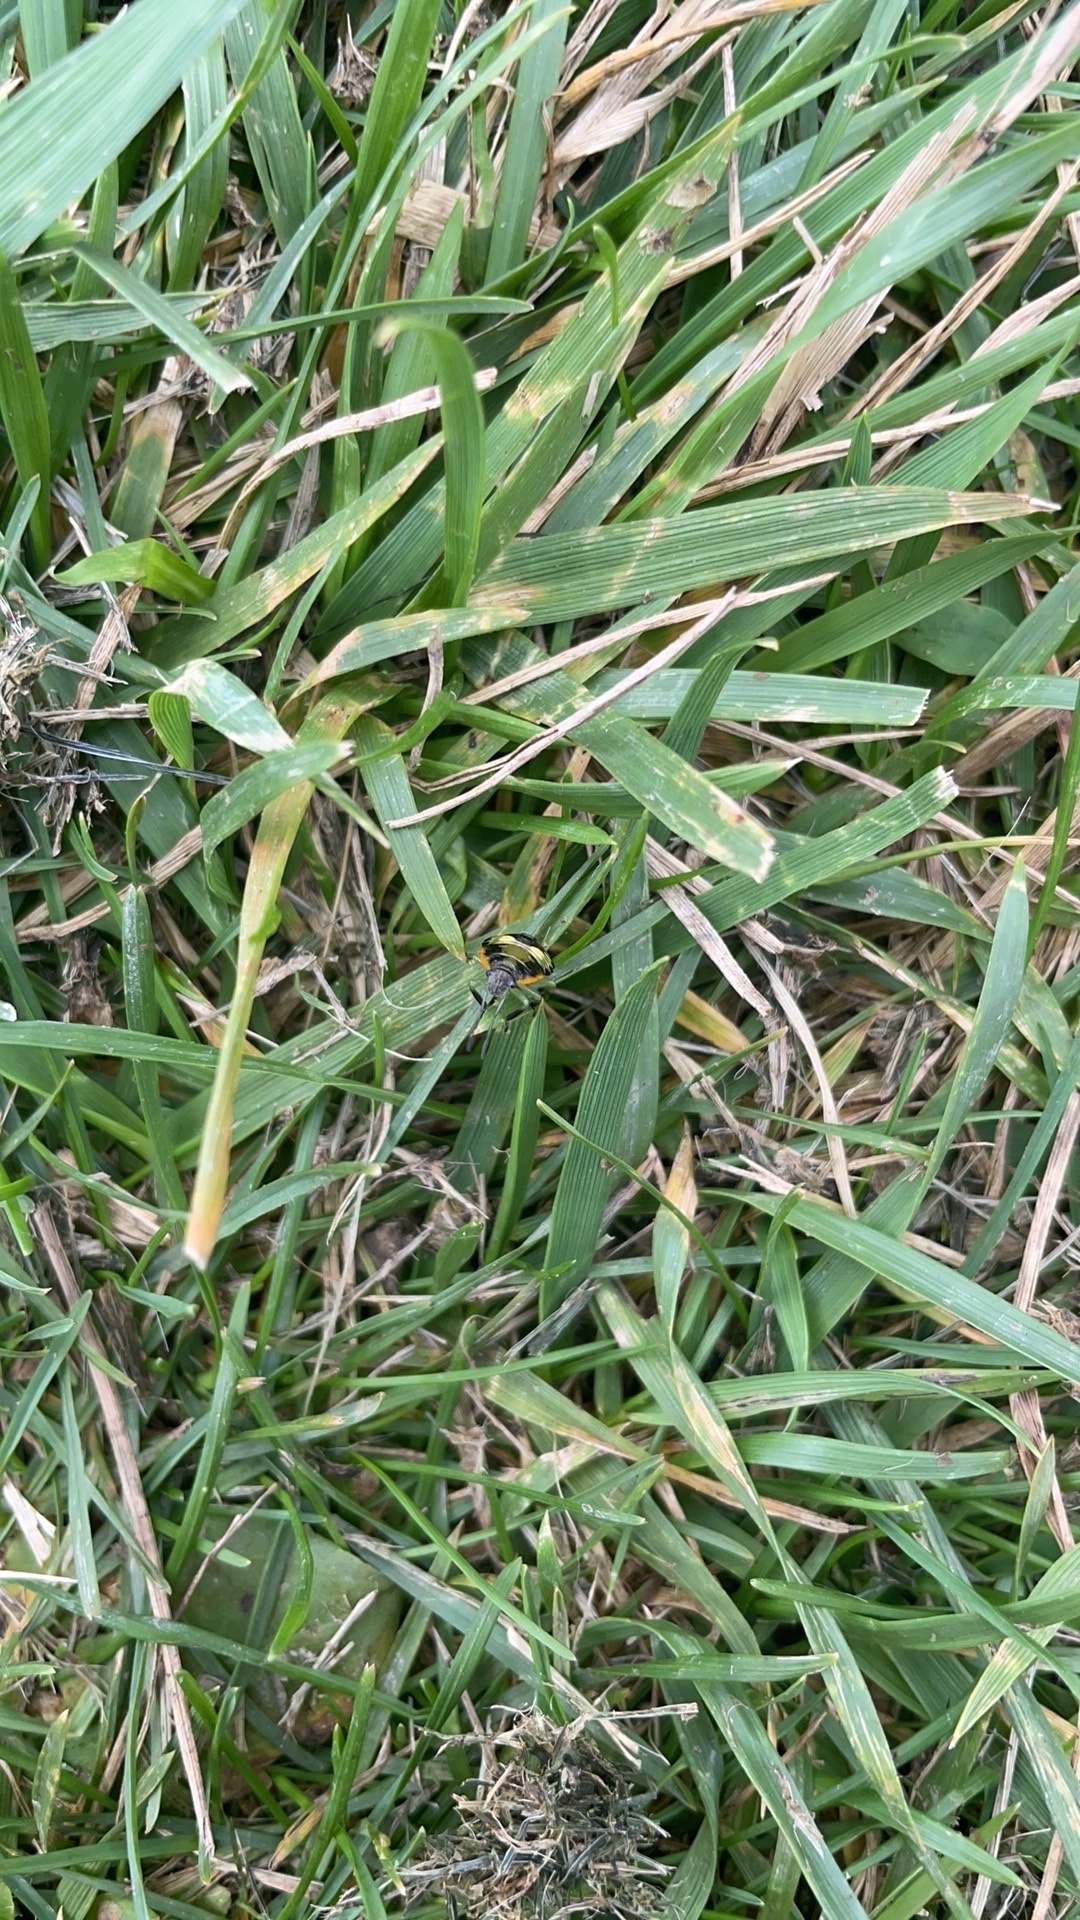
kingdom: Animalia
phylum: Arthropoda
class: Insecta
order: Hemiptera
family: Pentatomidae
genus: Chinavia
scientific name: Chinavia hilaris
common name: Green stink bug
